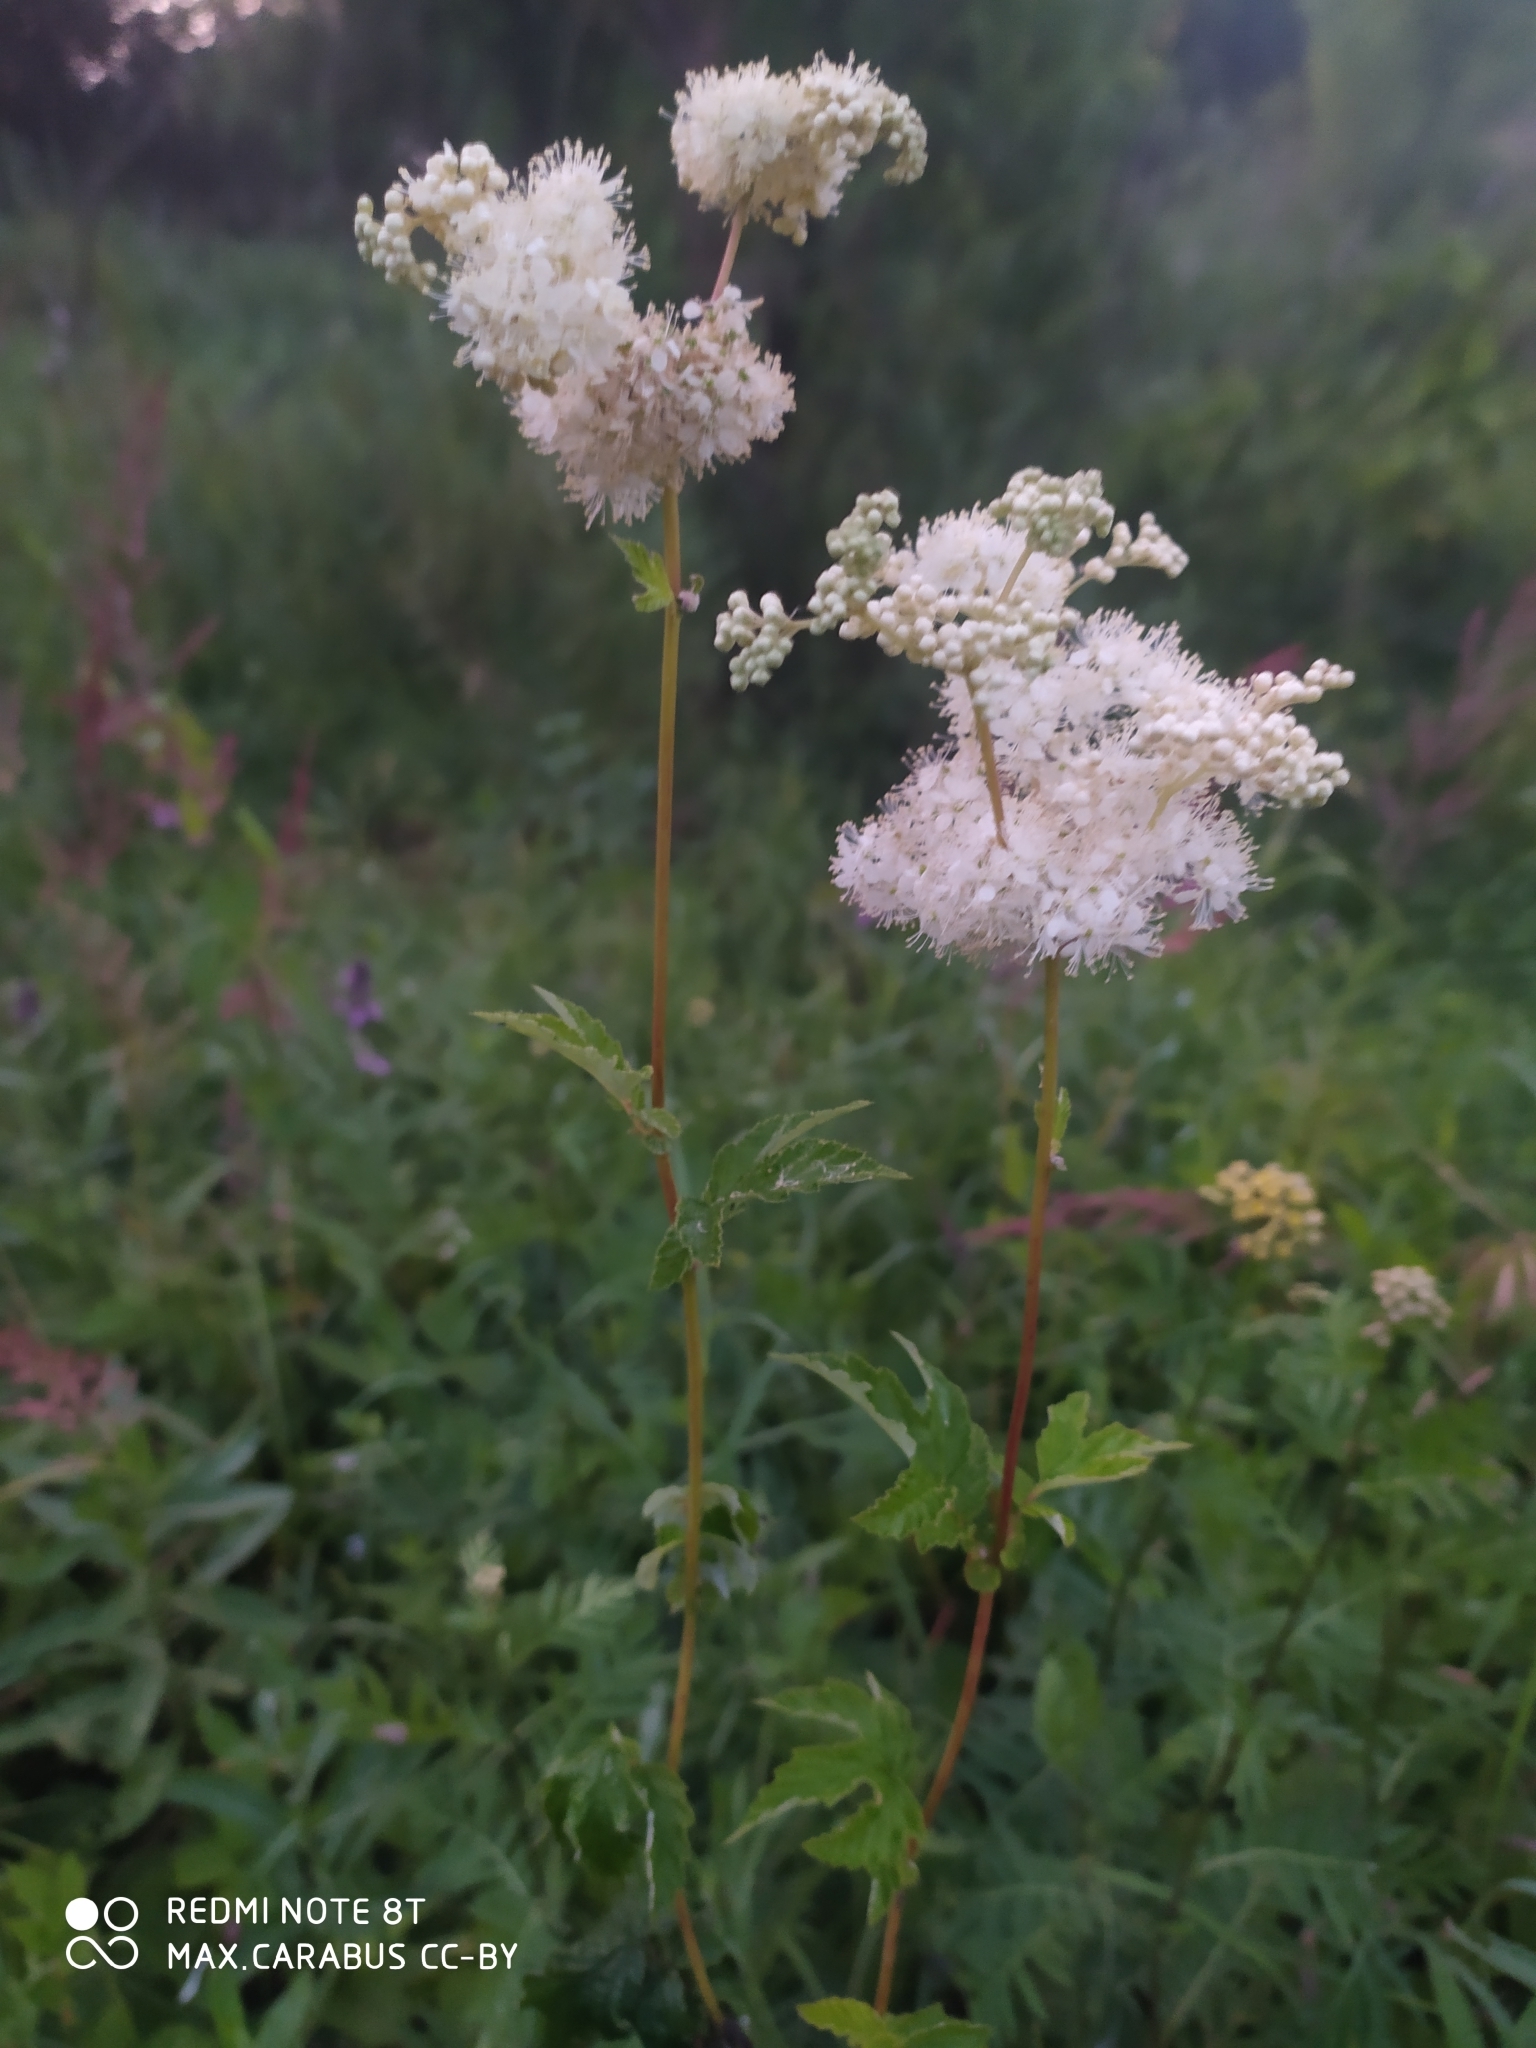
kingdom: Plantae
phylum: Tracheophyta
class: Magnoliopsida
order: Rosales
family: Rosaceae
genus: Filipendula
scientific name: Filipendula ulmaria
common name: Meadowsweet
